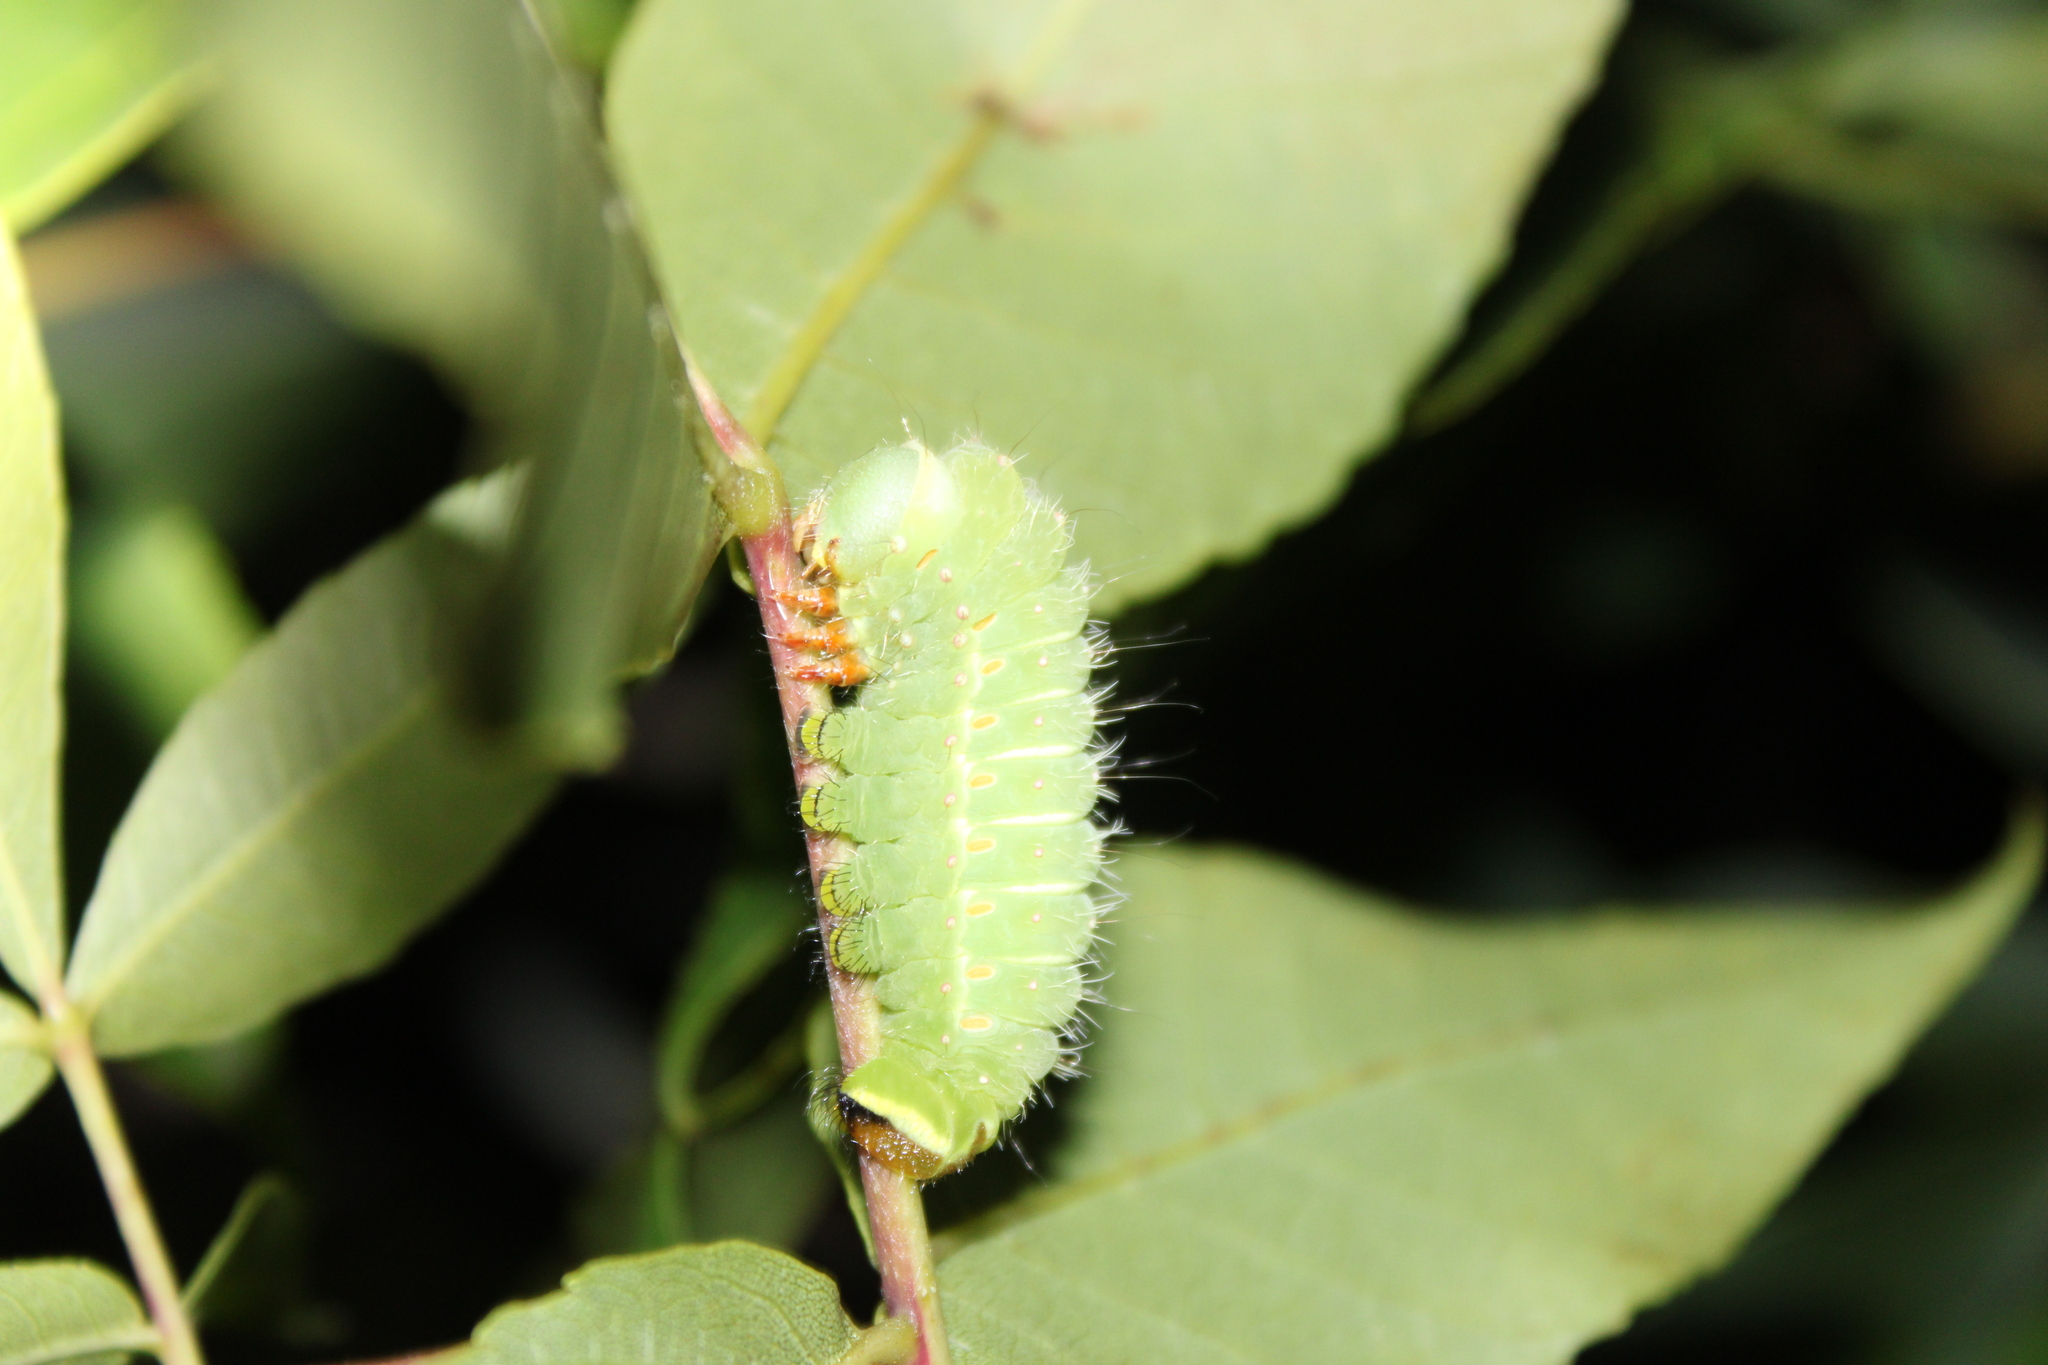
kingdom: Animalia
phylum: Arthropoda
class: Insecta
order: Lepidoptera
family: Saturniidae
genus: Actias
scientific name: Actias luna
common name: Luna moth
